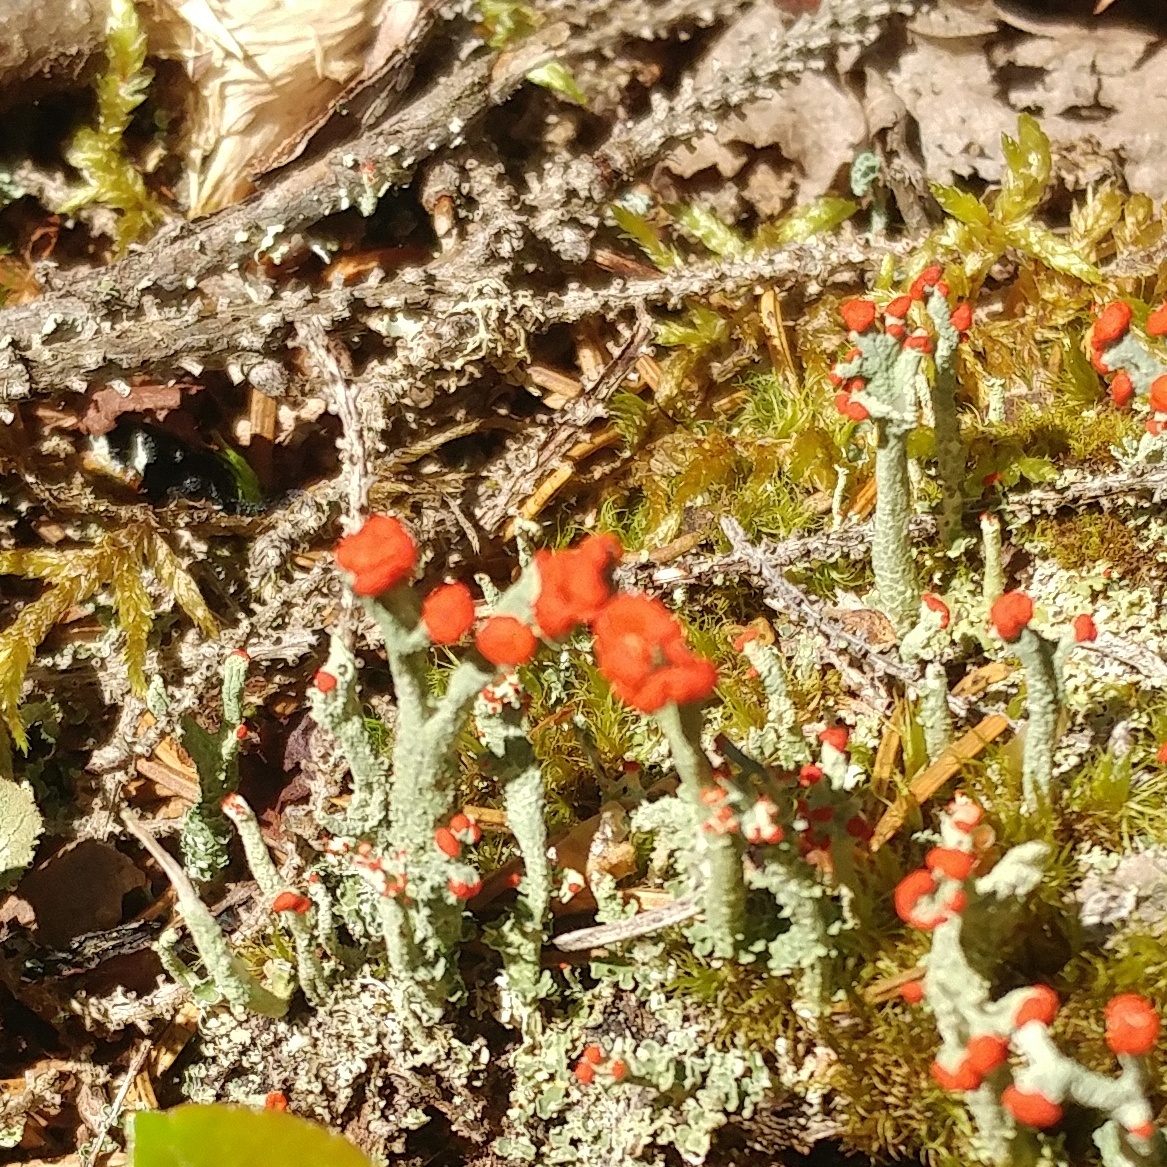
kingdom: Fungi
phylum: Ascomycota
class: Lecanoromycetes
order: Lecanorales
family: Cladoniaceae
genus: Cladonia
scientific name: Cladonia cristatella
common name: British soldier lichen
